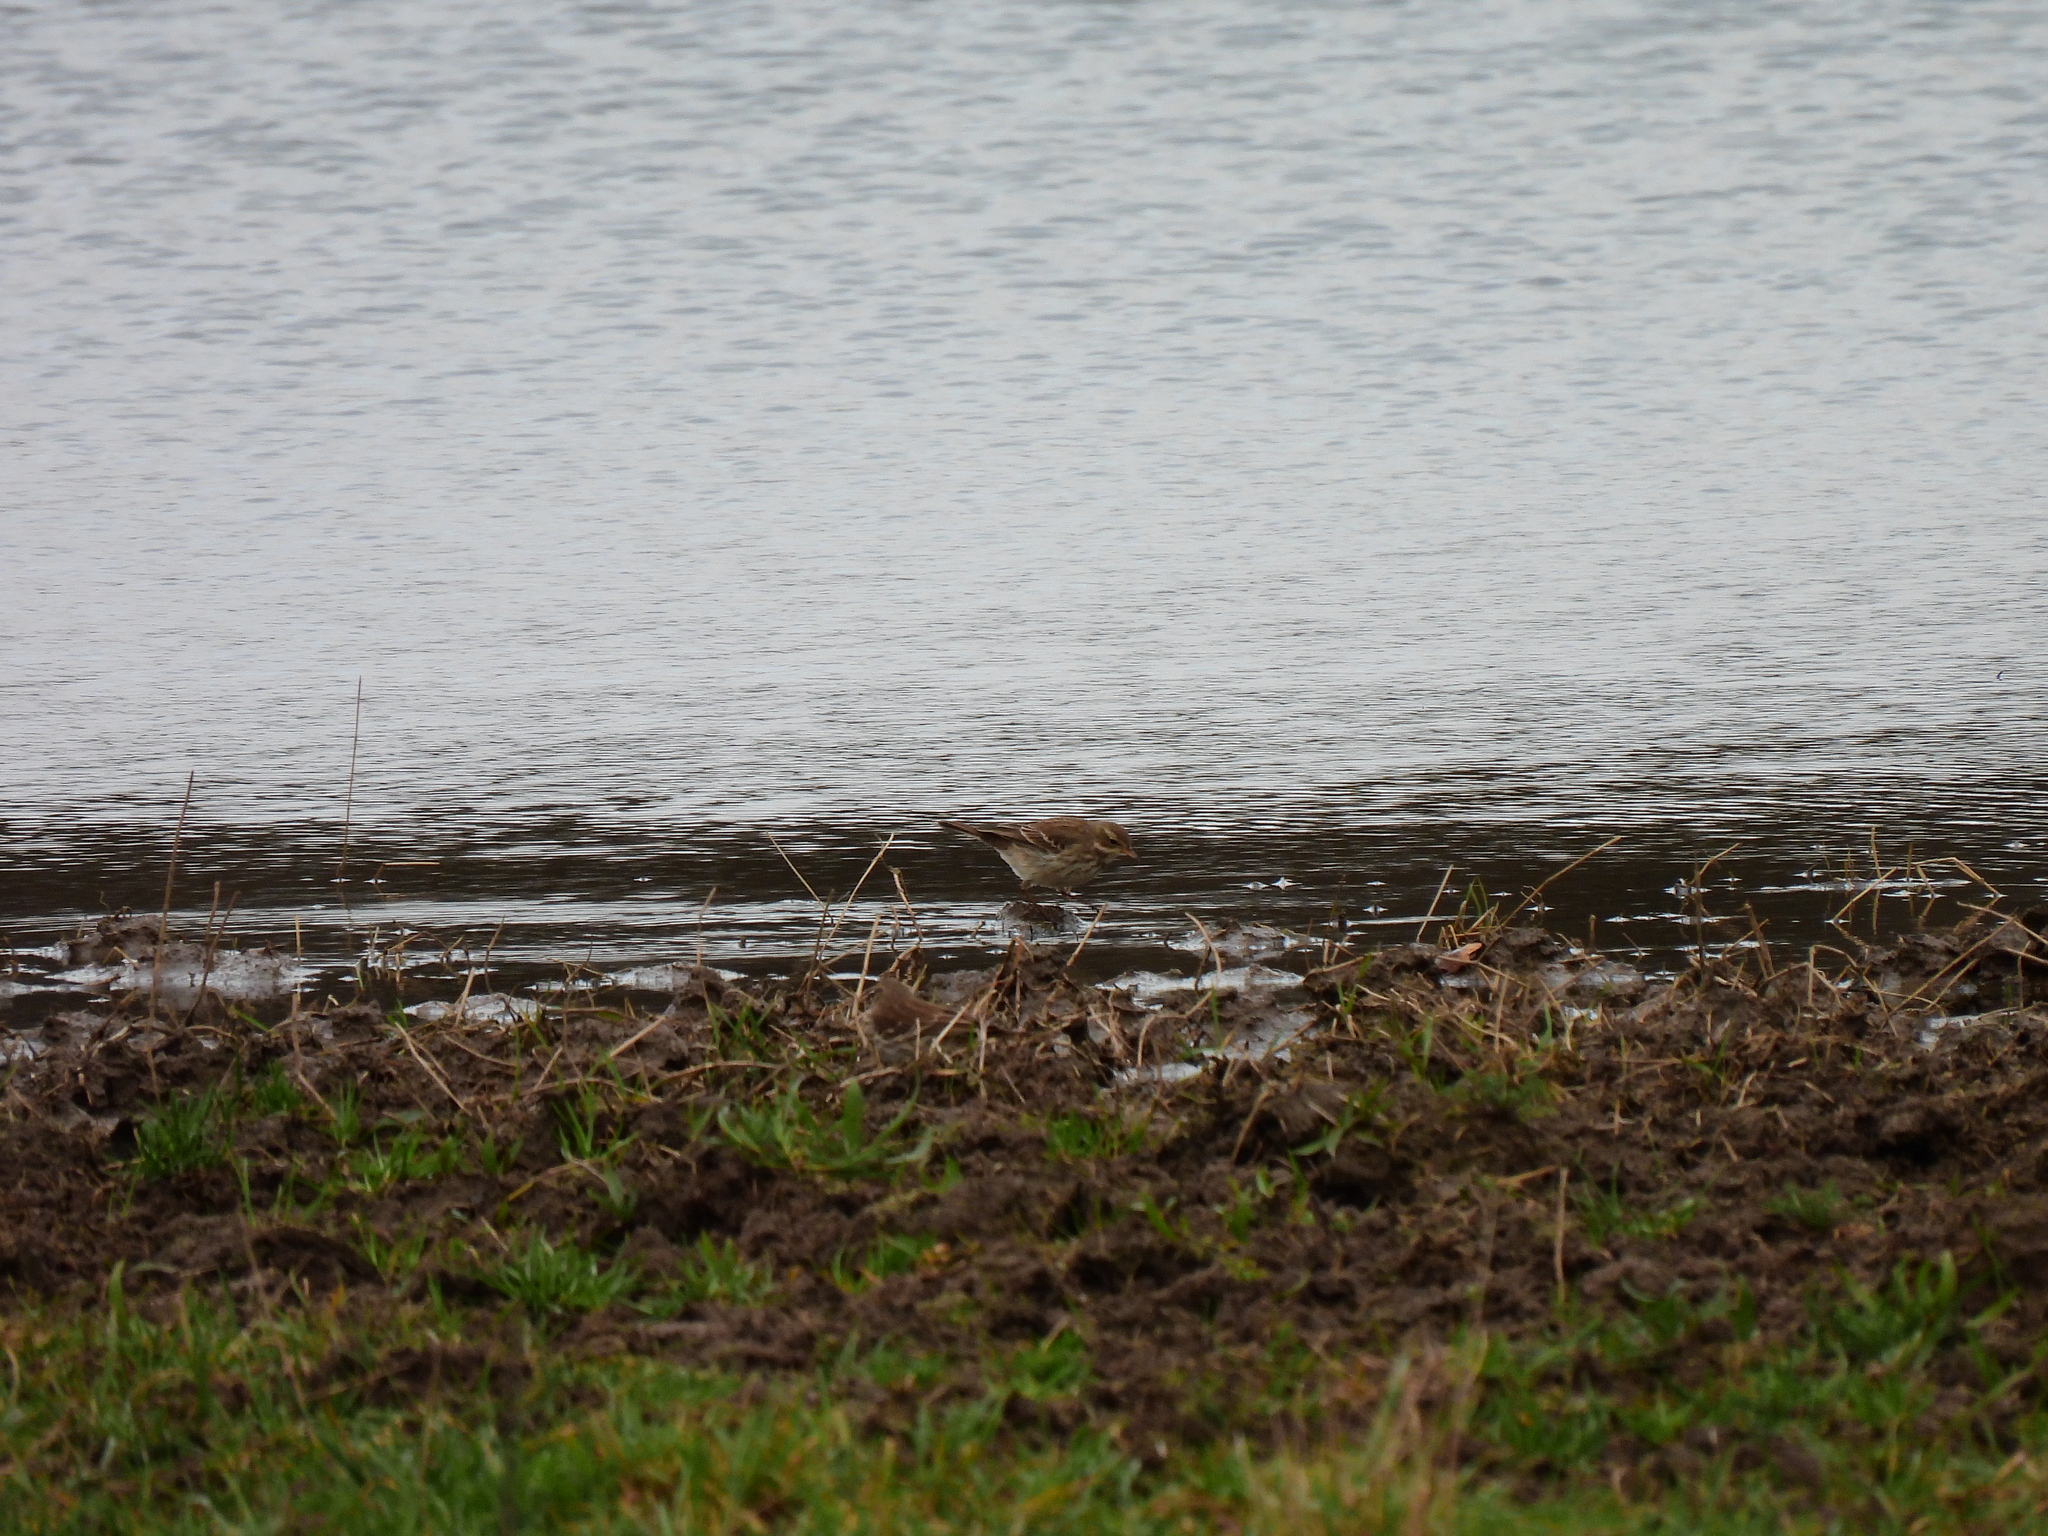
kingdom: Animalia
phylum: Chordata
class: Aves
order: Passeriformes
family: Motacillidae
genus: Anthus
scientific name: Anthus spinoletta
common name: Water pipit
